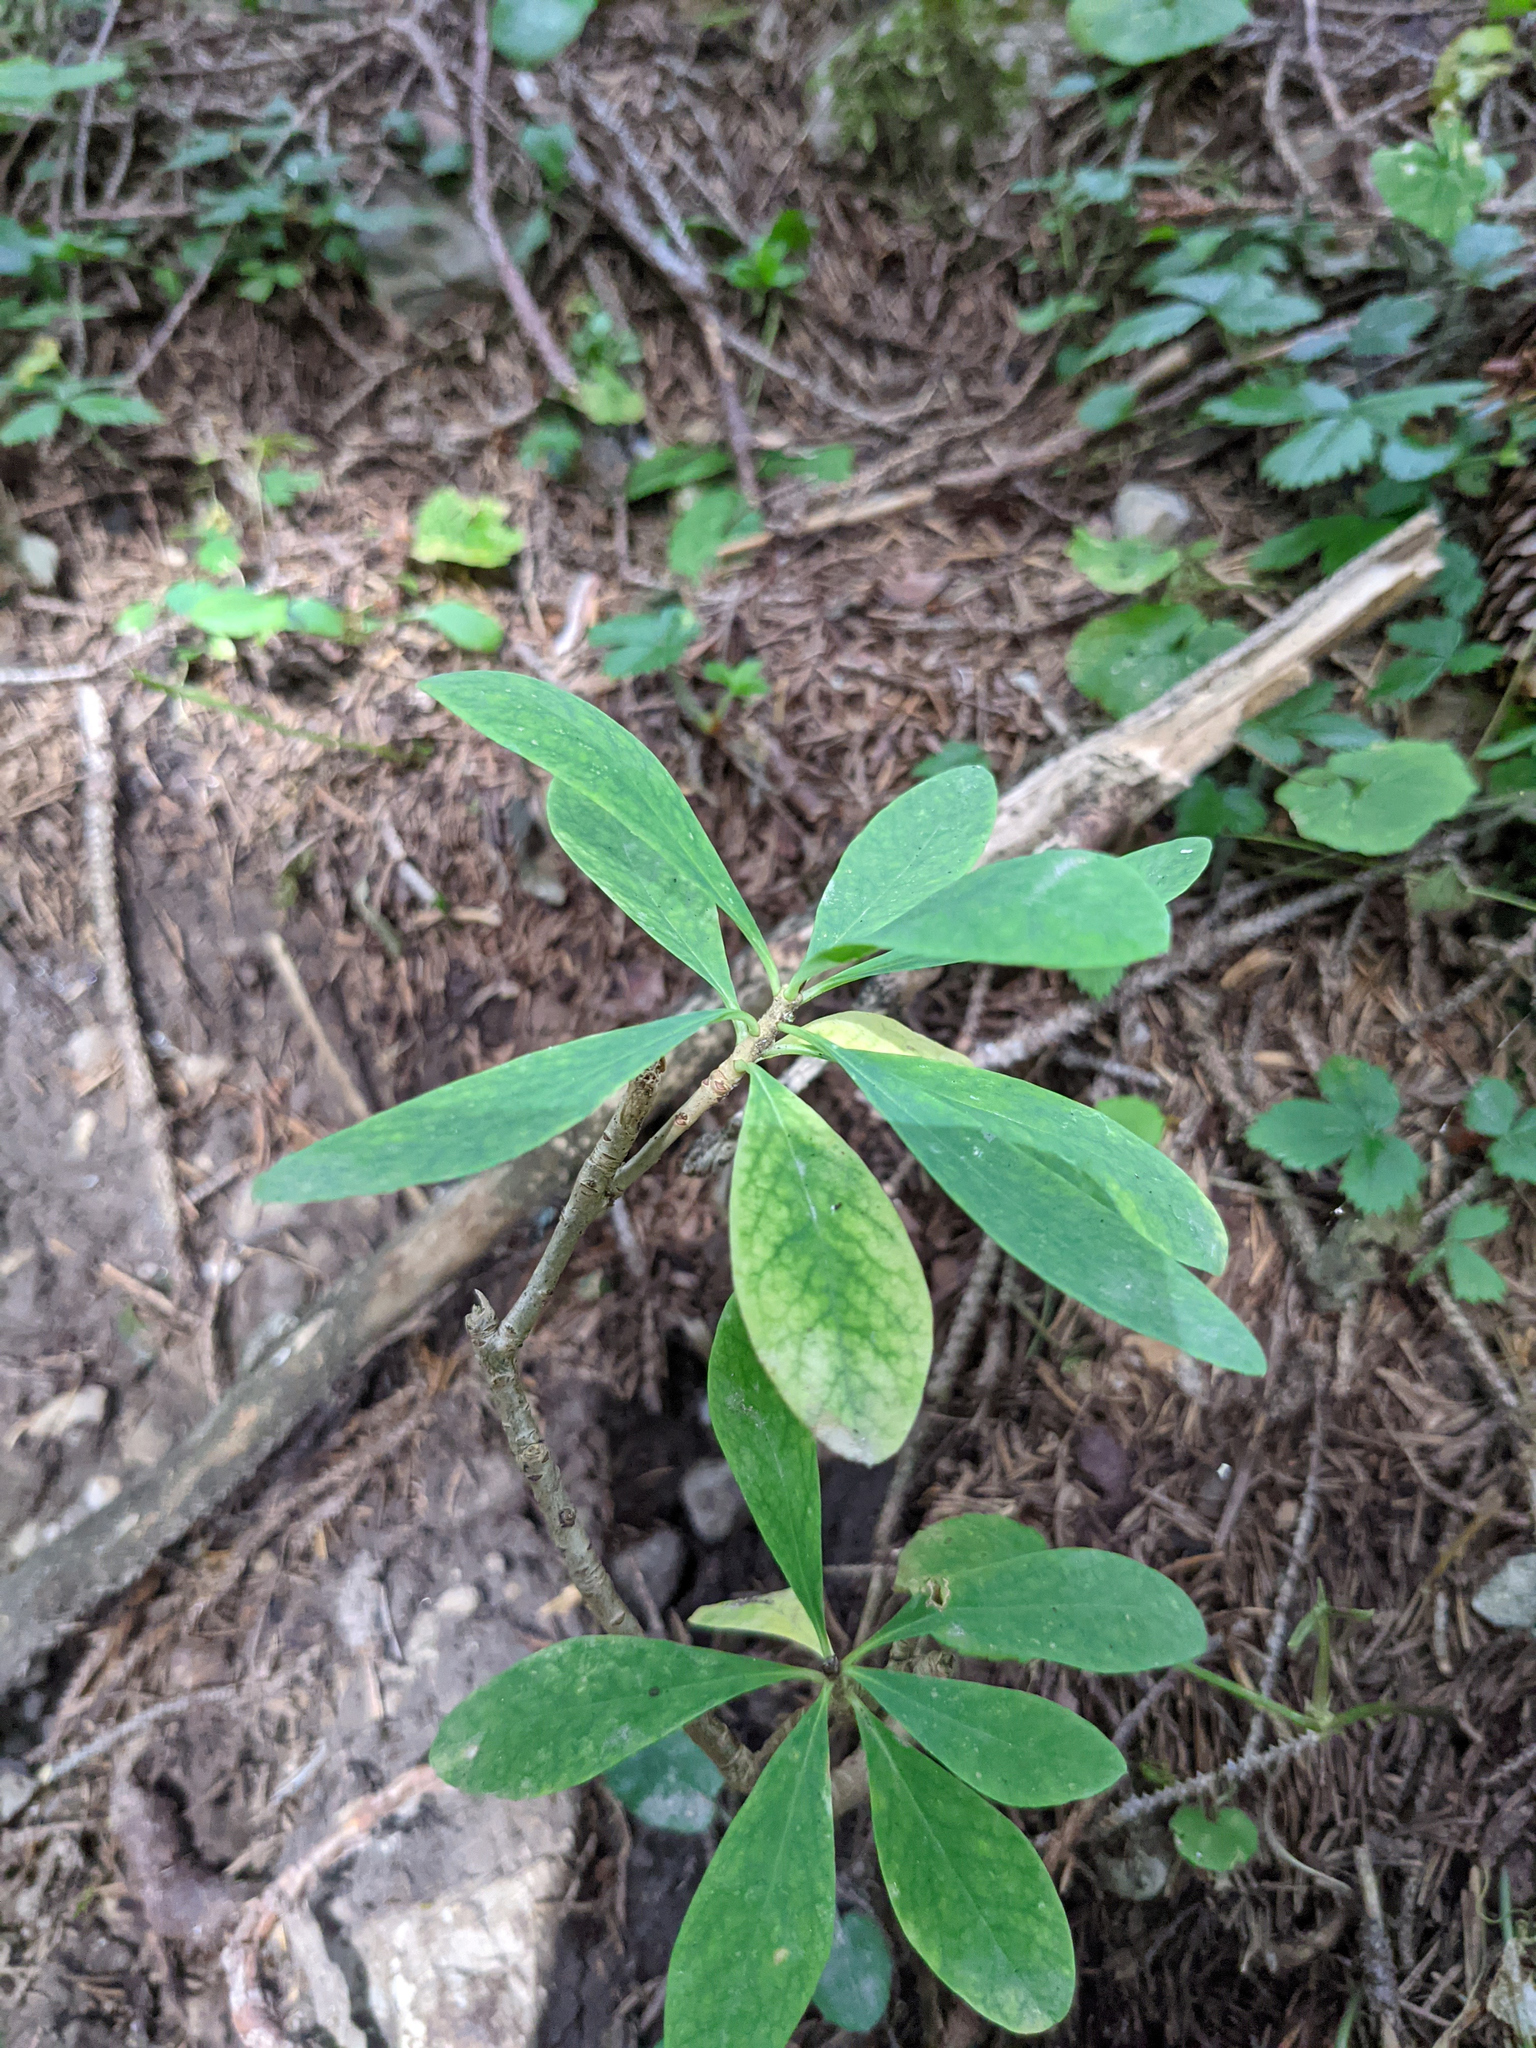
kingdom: Plantae
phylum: Tracheophyta
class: Magnoliopsida
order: Malvales
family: Thymelaeaceae
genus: Daphne
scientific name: Daphne mezereum
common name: Mezereon
